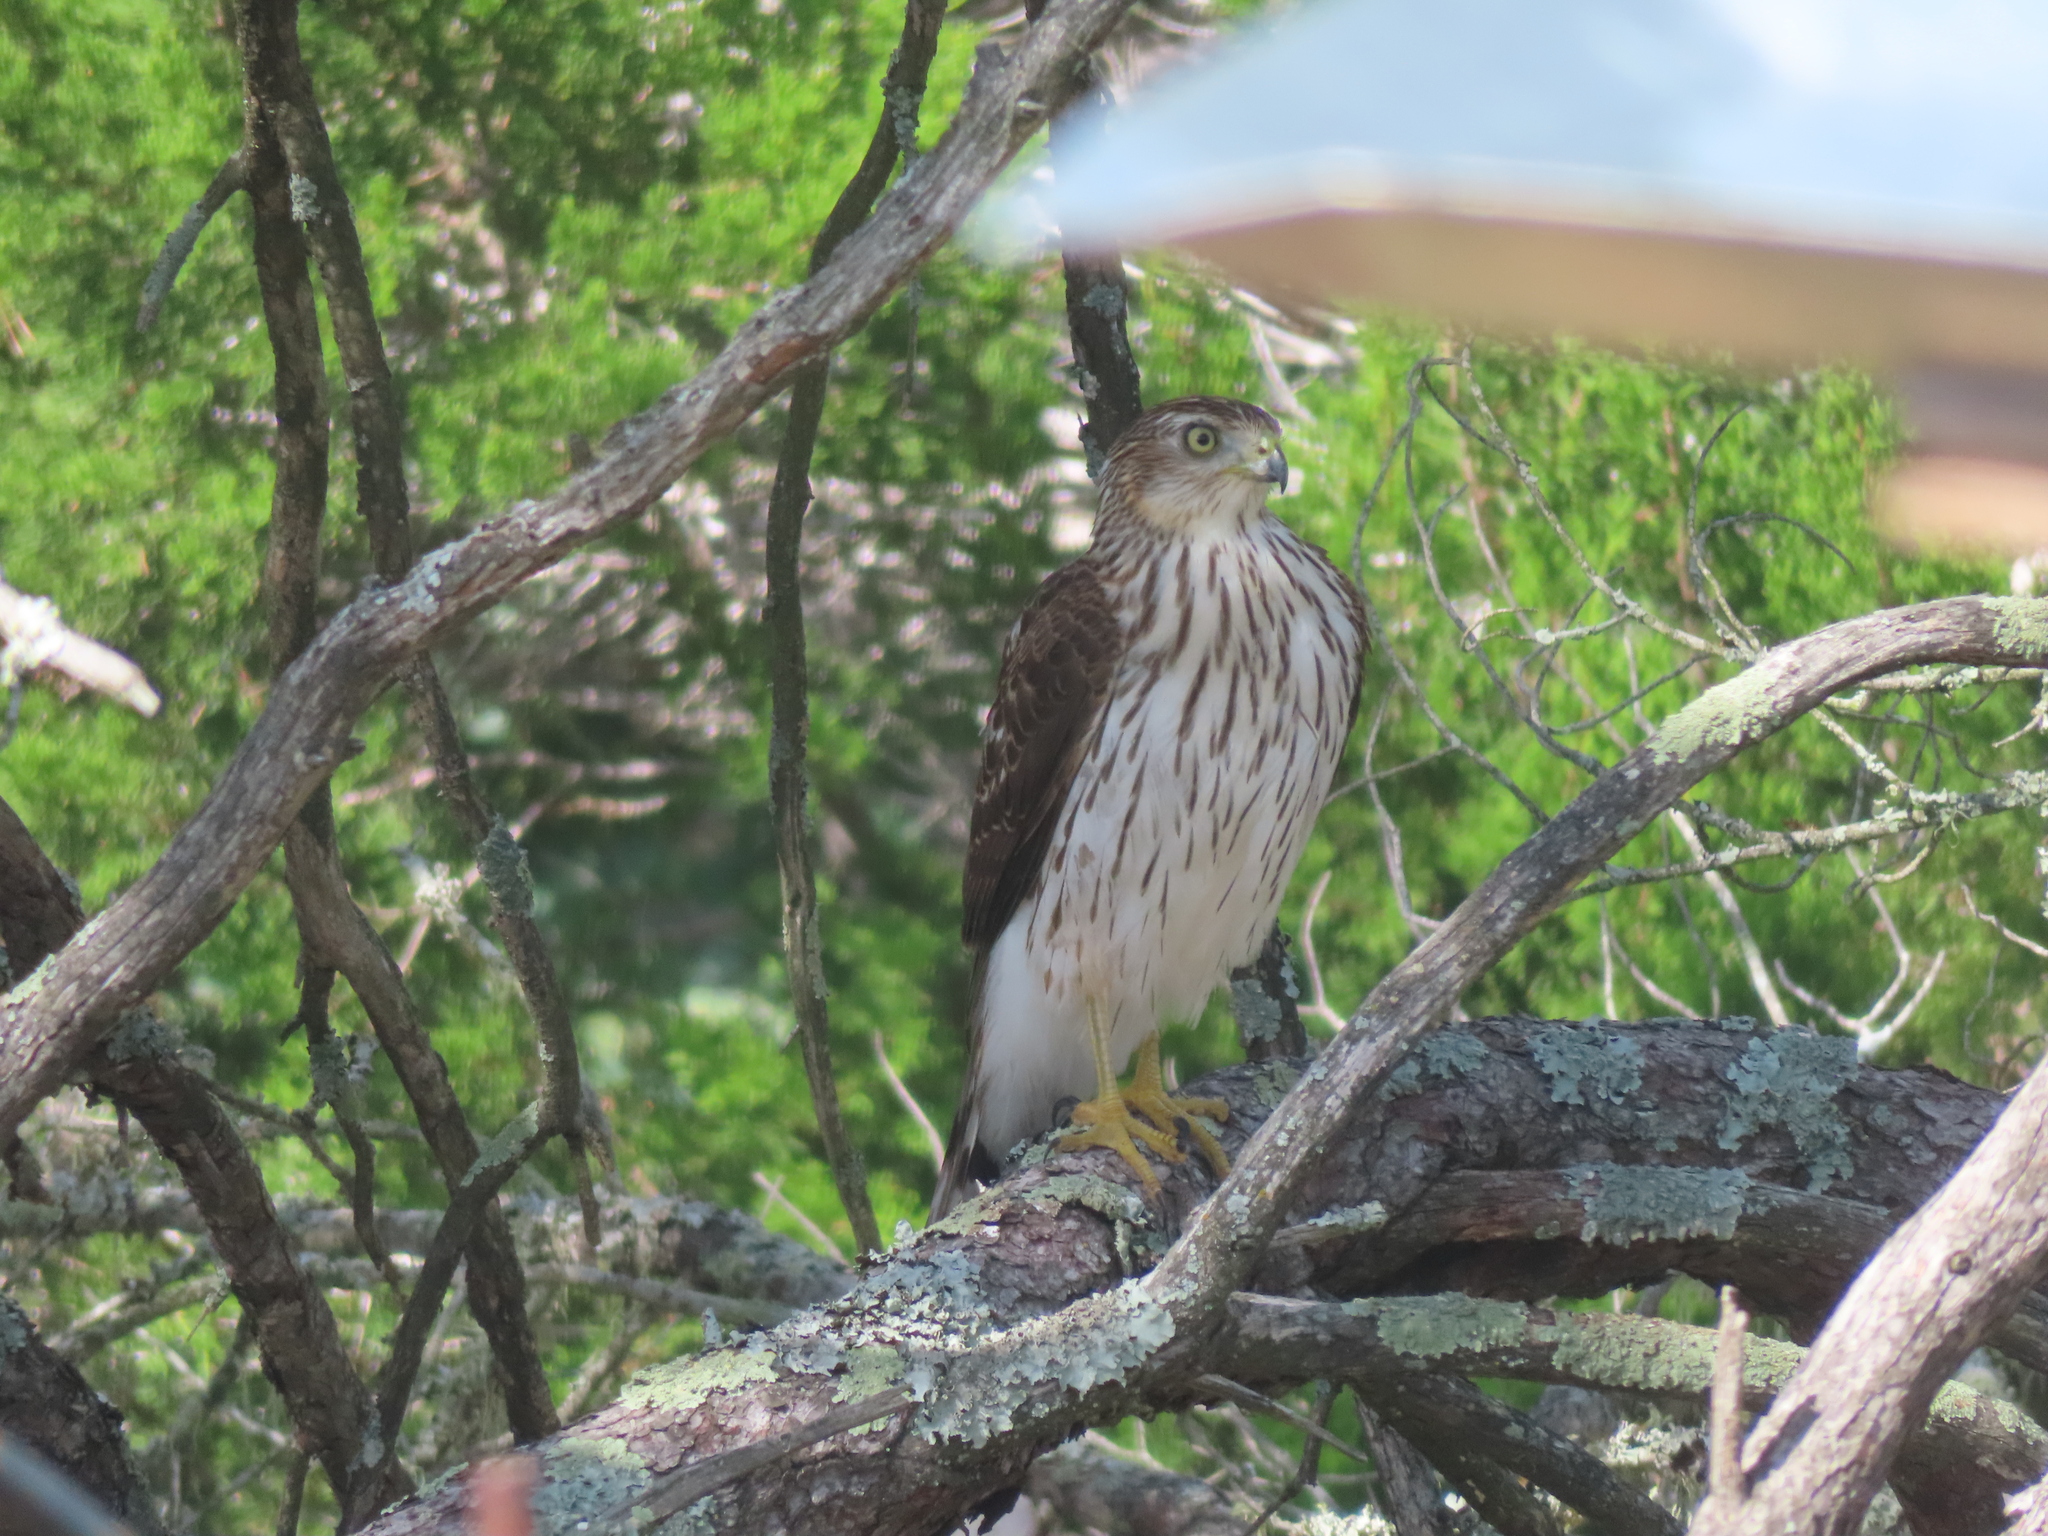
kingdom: Animalia
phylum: Chordata
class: Aves
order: Accipitriformes
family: Accipitridae
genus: Accipiter
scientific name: Accipiter cooperii
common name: Cooper's hawk
